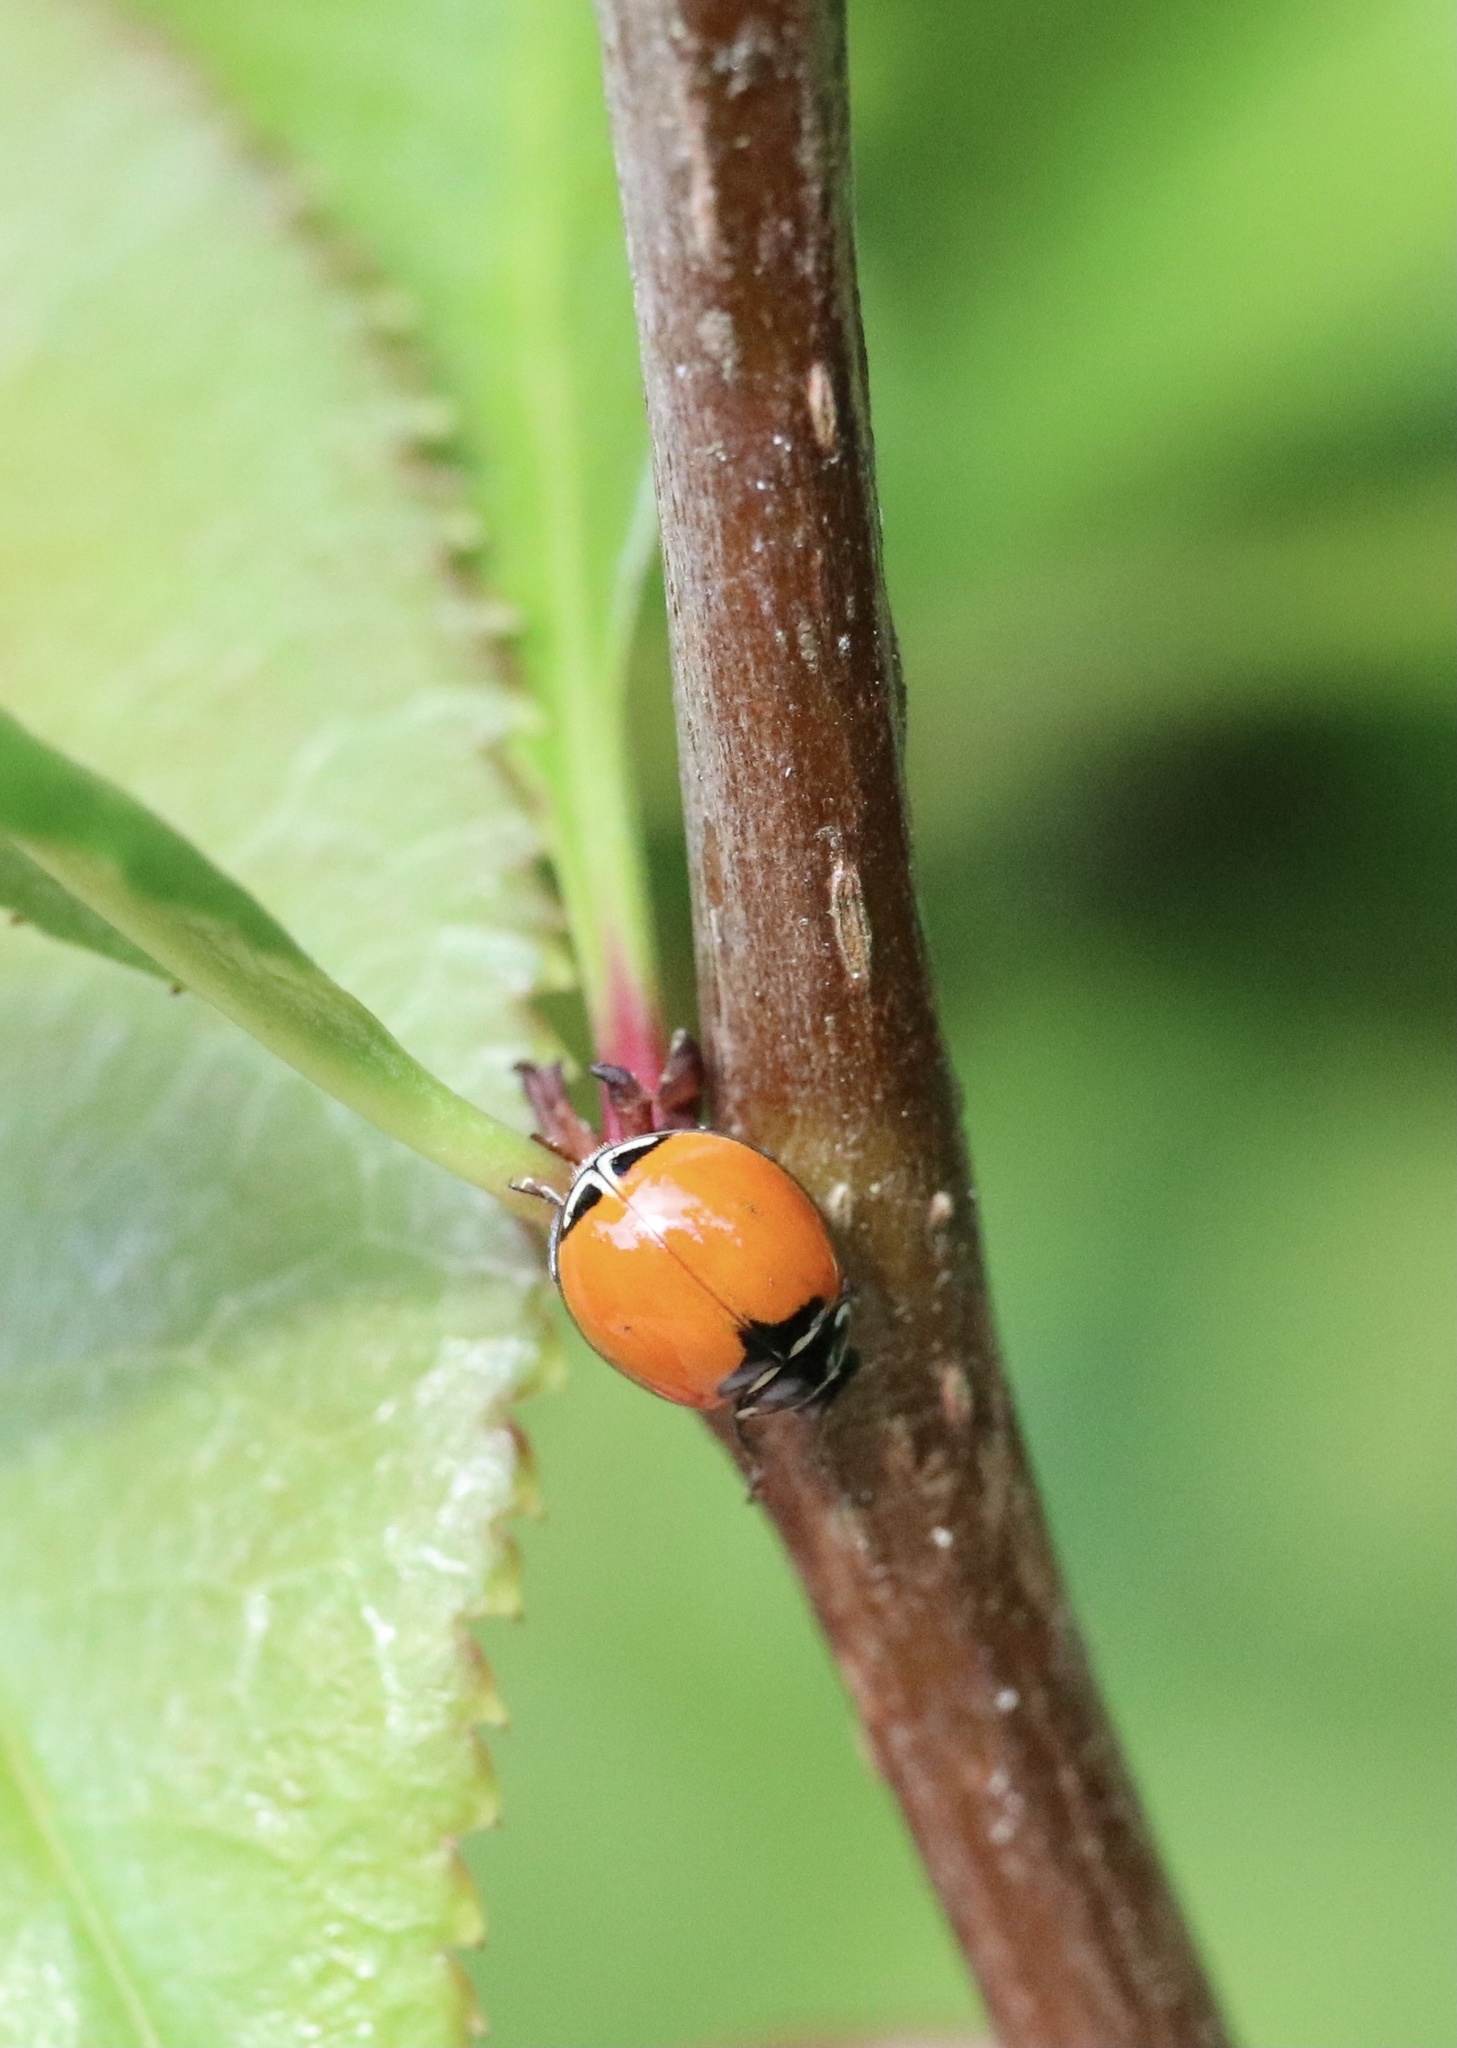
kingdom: Animalia
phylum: Arthropoda
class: Insecta
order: Coleoptera
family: Coccinellidae
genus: Adalia
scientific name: Adalia deficiens
